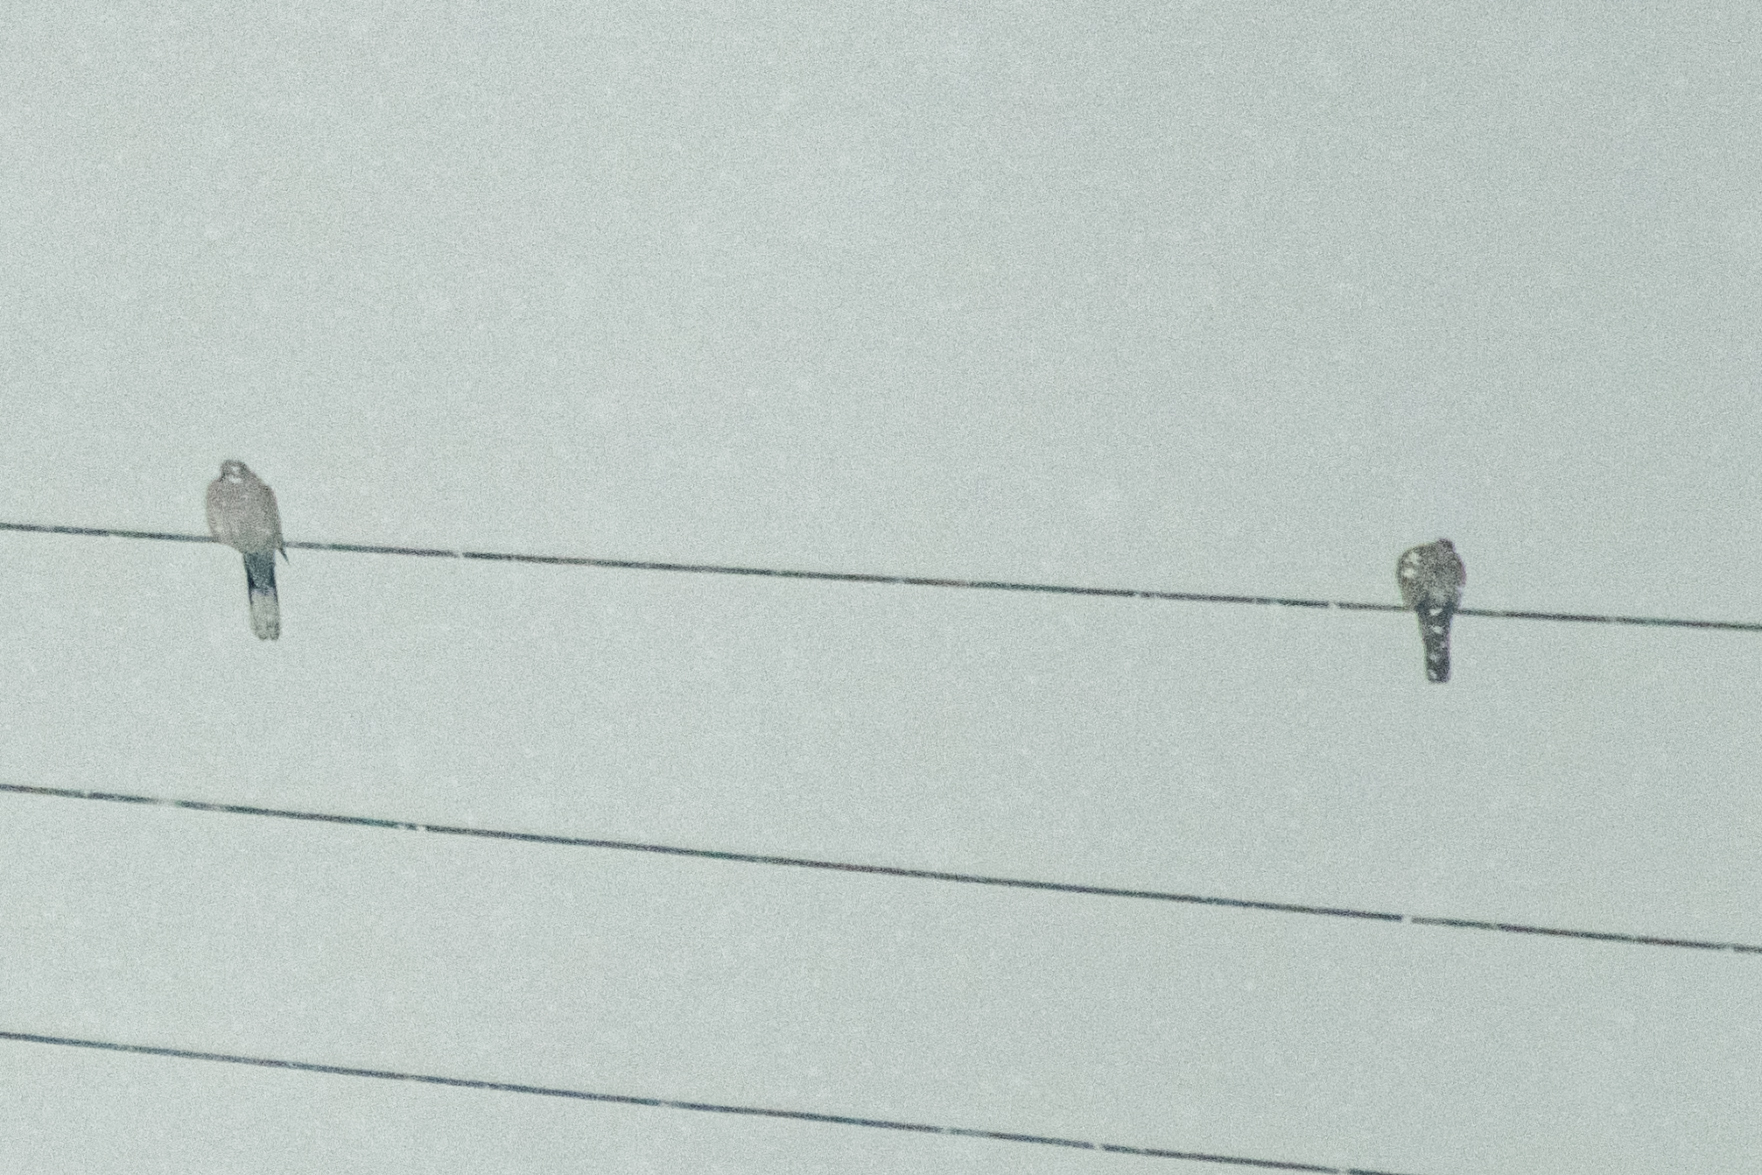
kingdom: Animalia
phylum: Chordata
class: Aves
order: Columbiformes
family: Columbidae
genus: Streptopelia
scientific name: Streptopelia decaocto
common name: Eurasian collared dove
